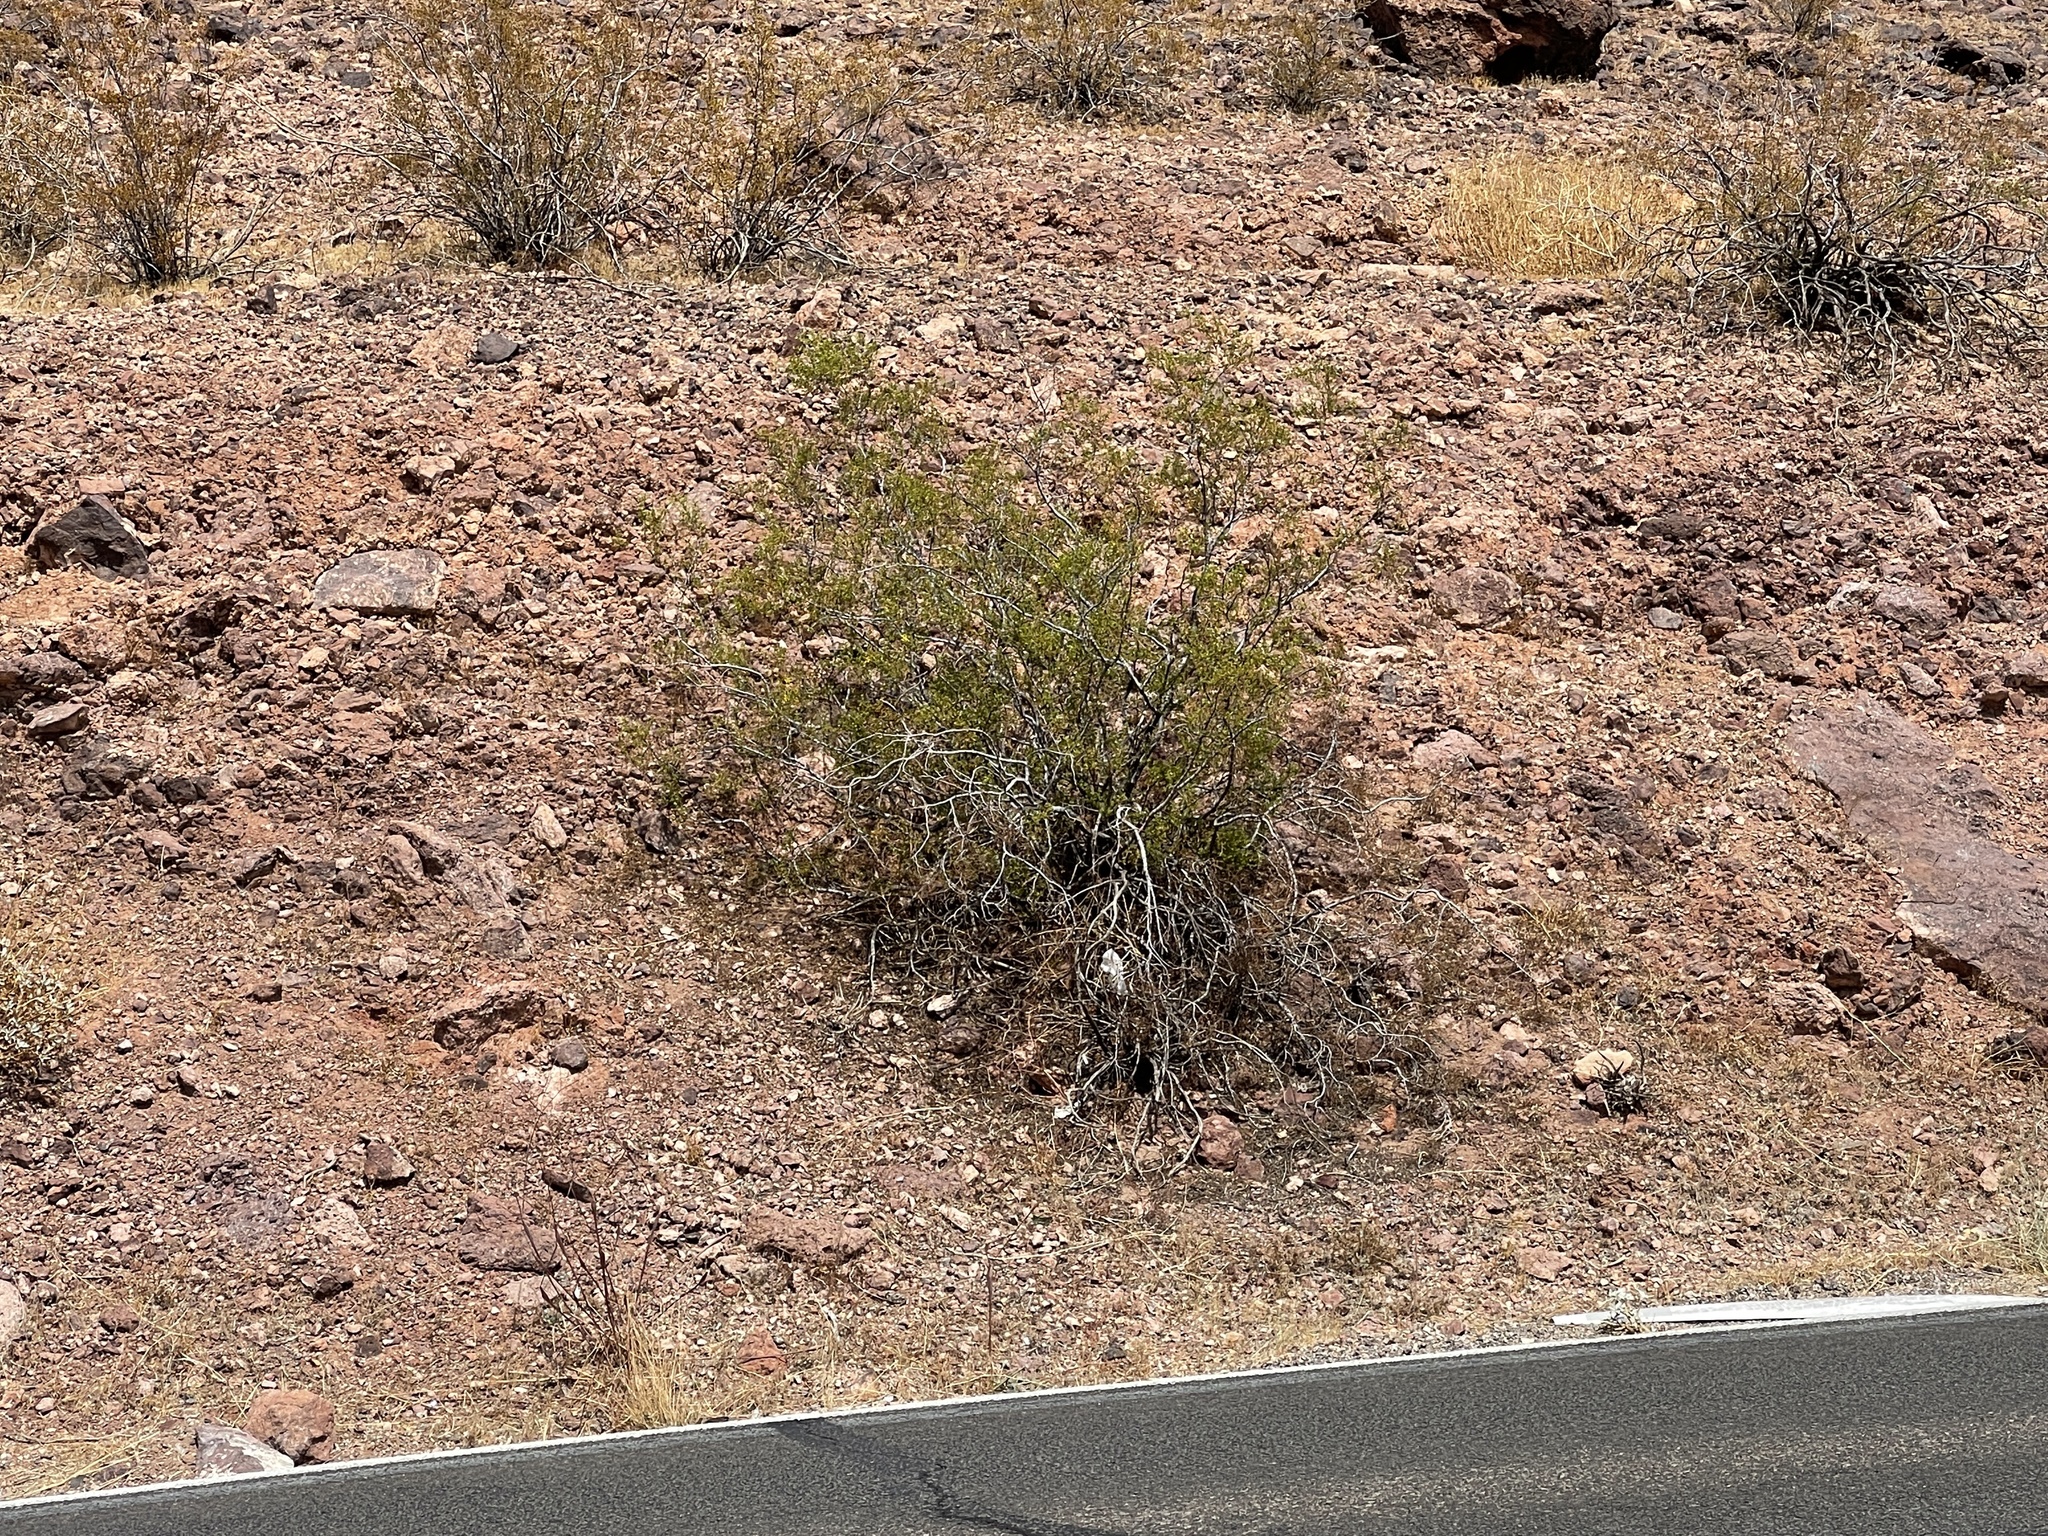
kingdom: Plantae
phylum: Tracheophyta
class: Magnoliopsida
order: Zygophyllales
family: Zygophyllaceae
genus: Larrea
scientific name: Larrea tridentata
